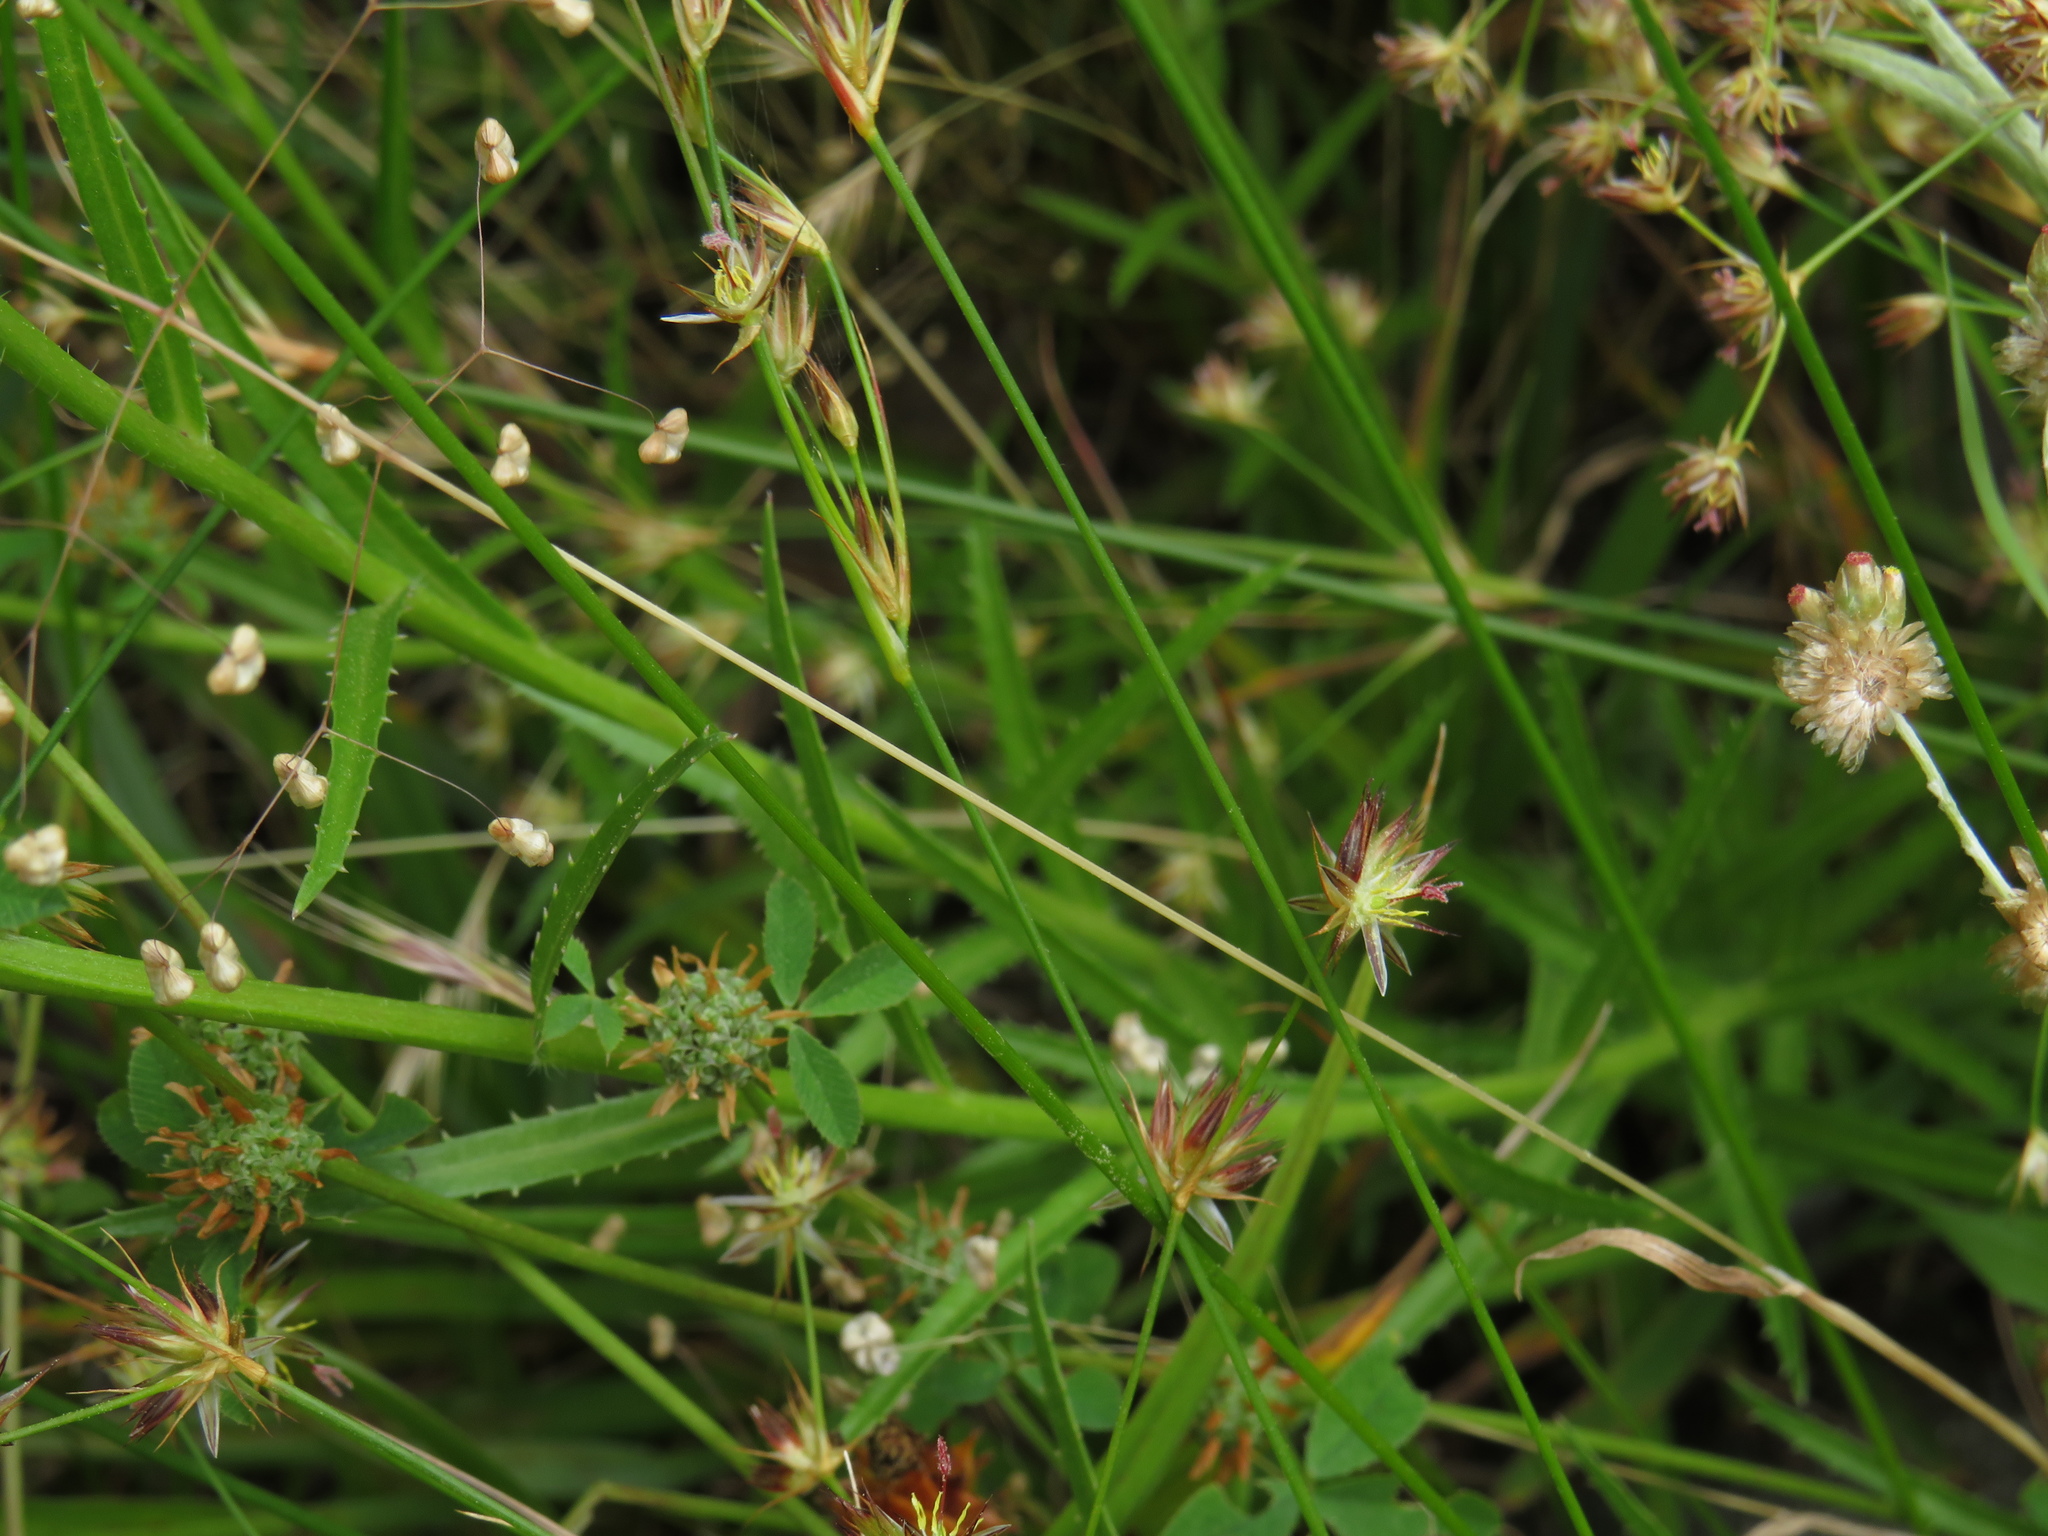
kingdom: Plantae
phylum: Tracheophyta
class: Magnoliopsida
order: Asterales
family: Campanulaceae
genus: Monopsis
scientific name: Monopsis lutea
